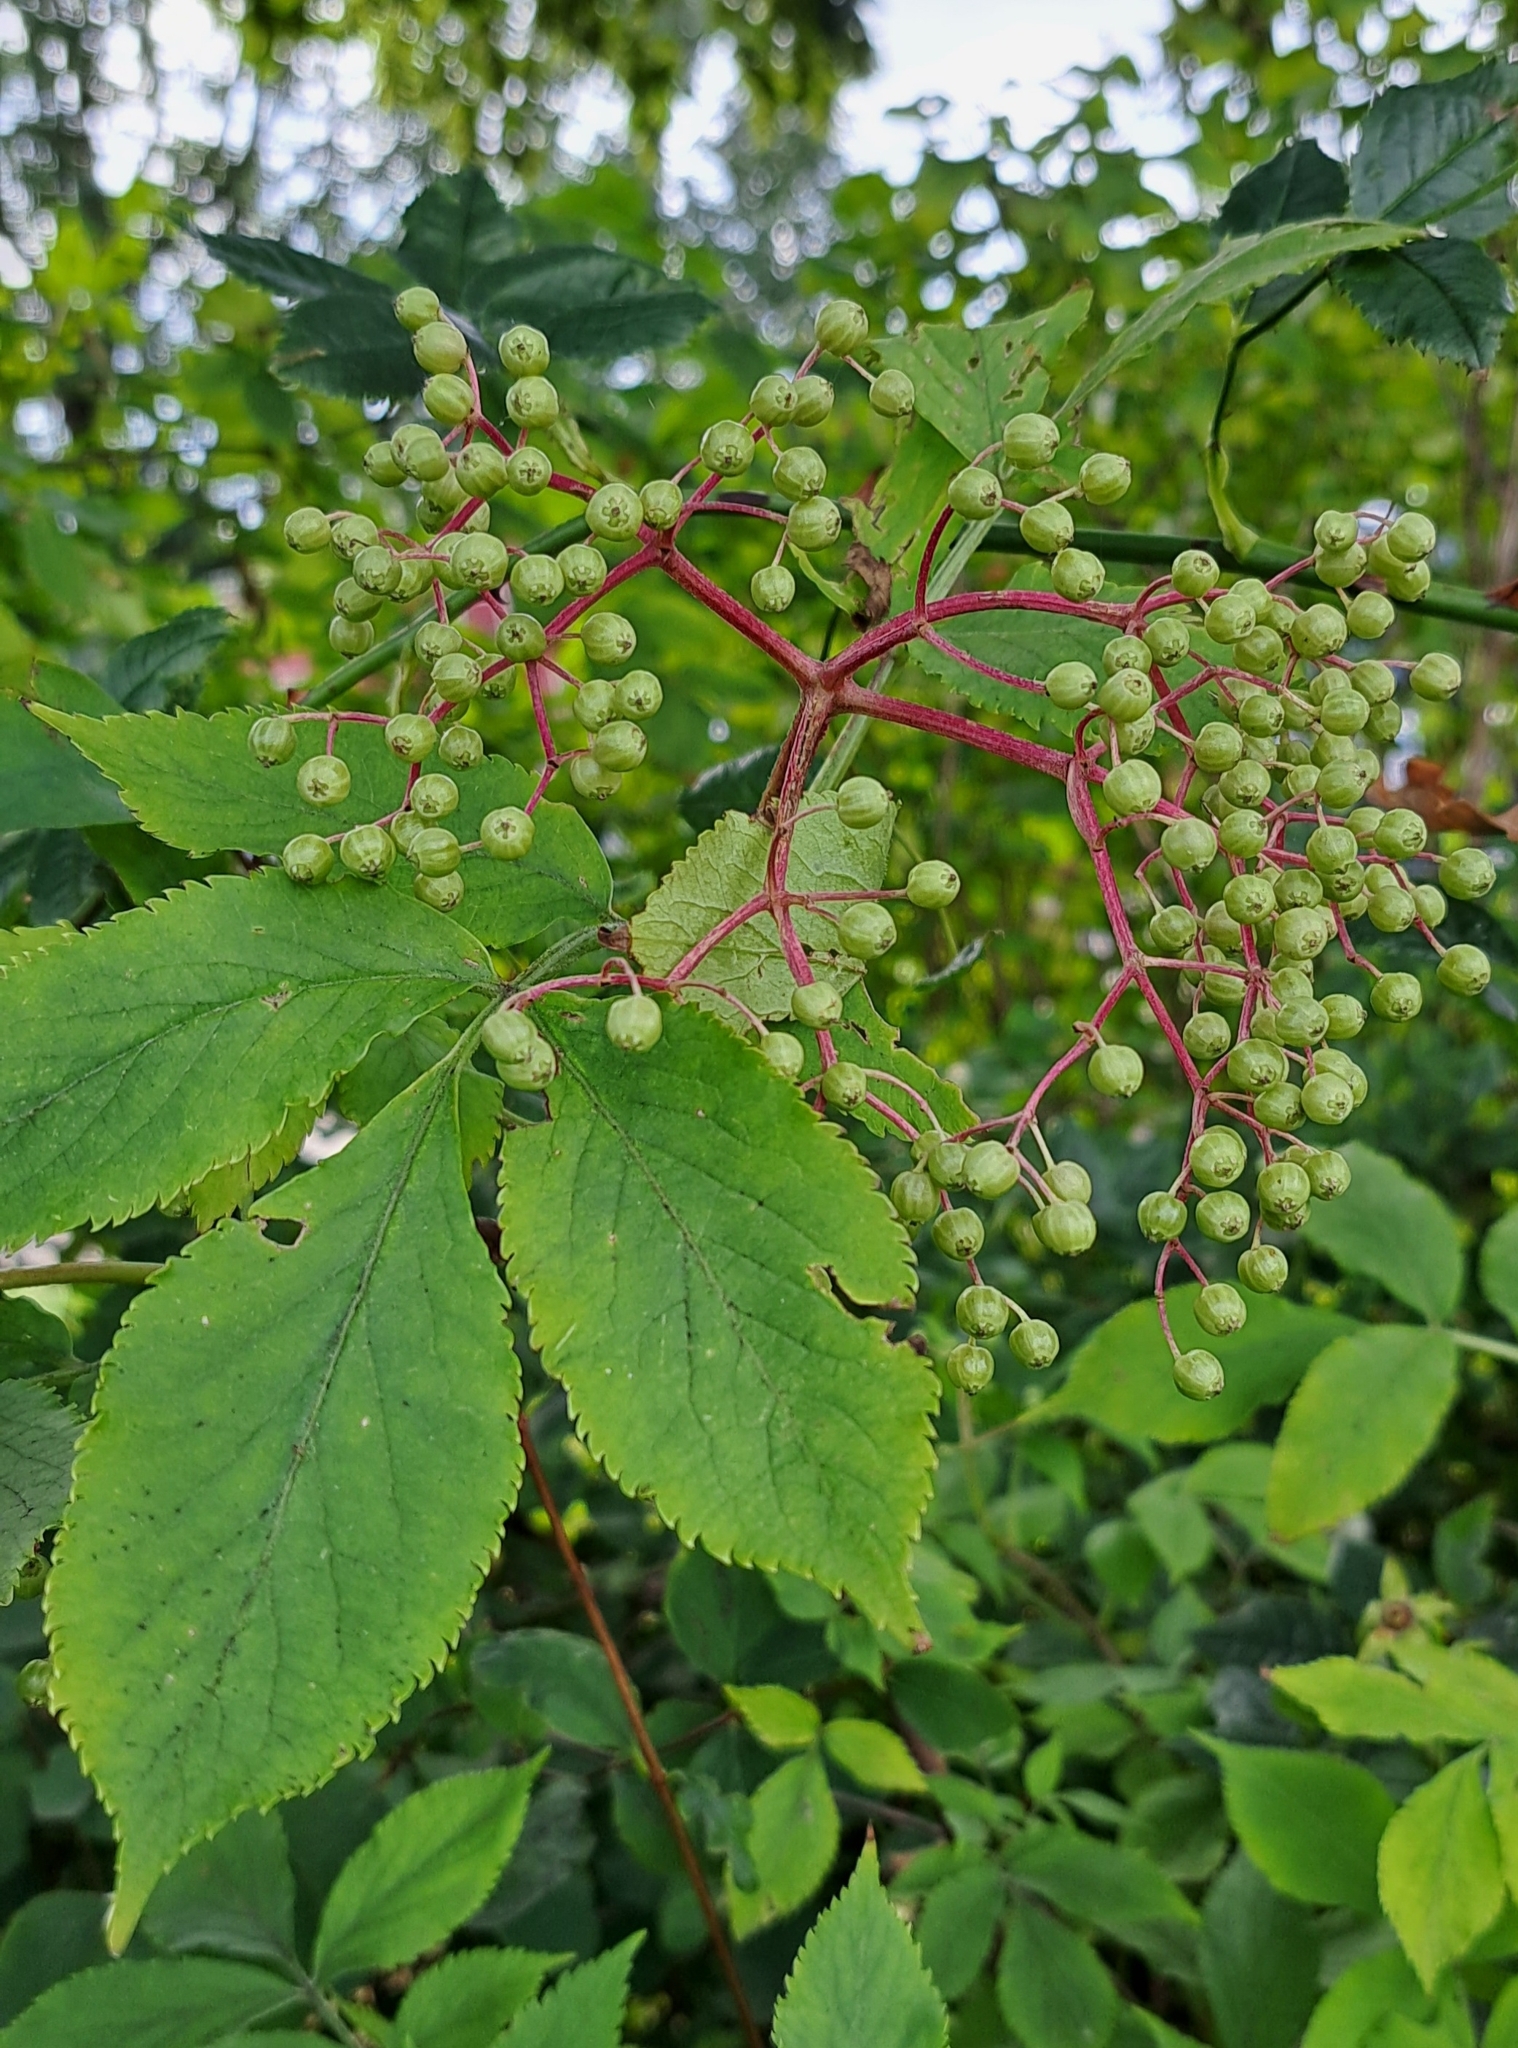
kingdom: Plantae
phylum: Tracheophyta
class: Magnoliopsida
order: Dipsacales
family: Viburnaceae
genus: Sambucus
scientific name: Sambucus nigra
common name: Elder
